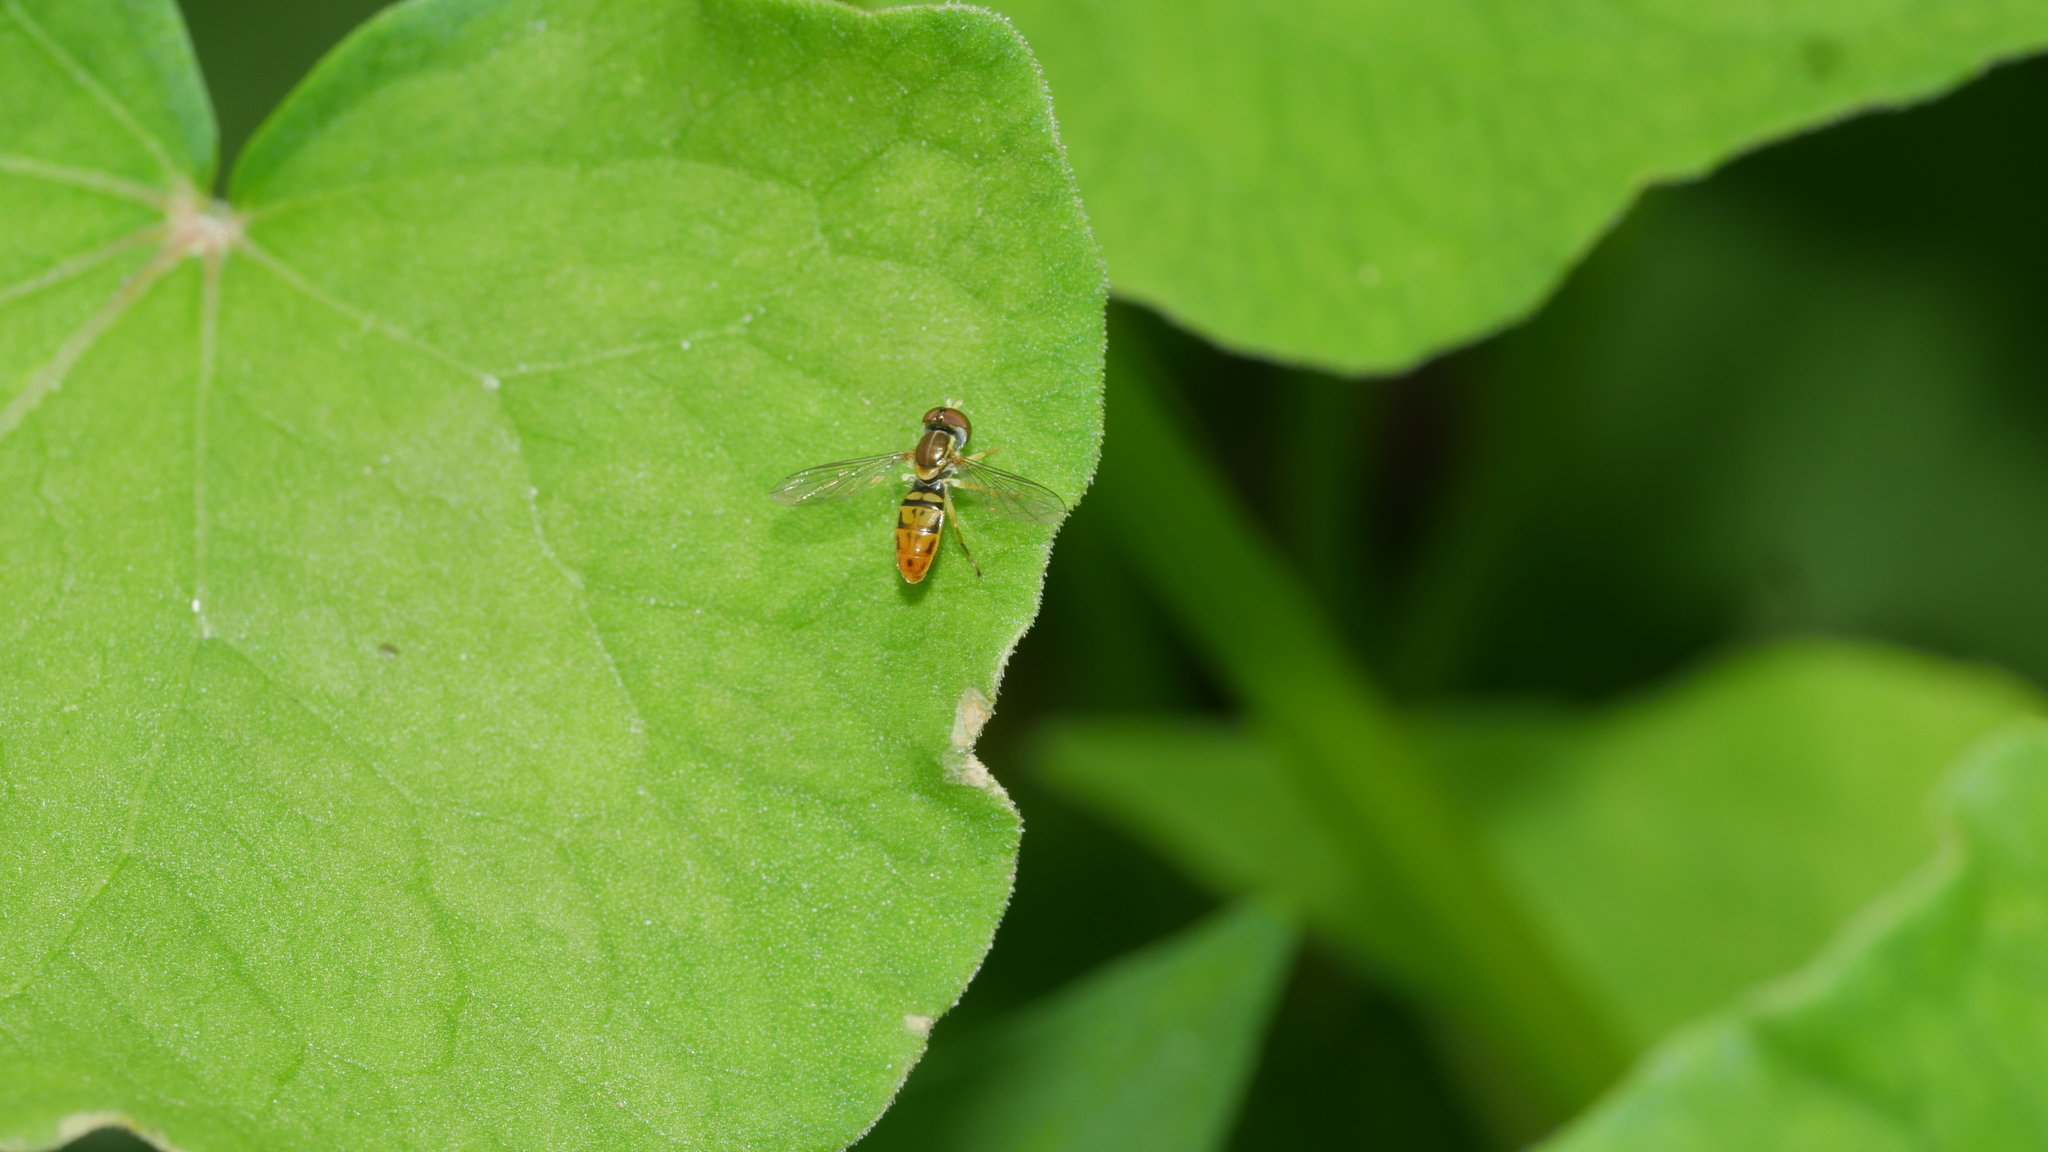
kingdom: Animalia
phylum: Arthropoda
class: Insecta
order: Diptera
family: Syrphidae
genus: Toxomerus
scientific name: Toxomerus marginatus
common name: Syrphid fly
